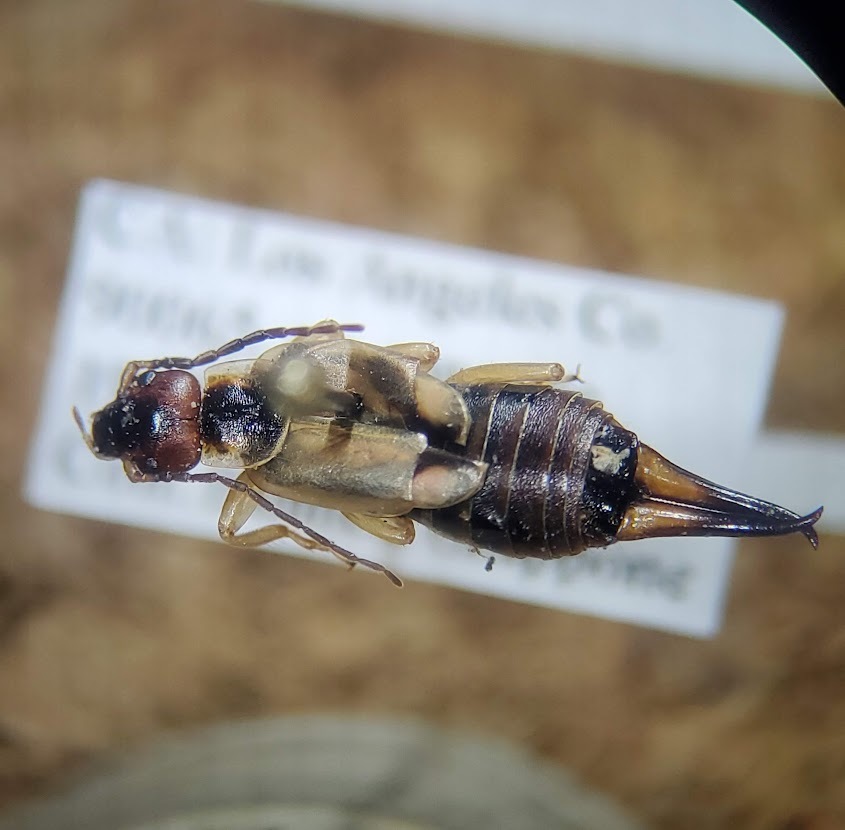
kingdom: Animalia
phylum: Arthropoda
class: Insecta
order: Dermaptera
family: Forficulidae
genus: Forficula
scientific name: Forficula
